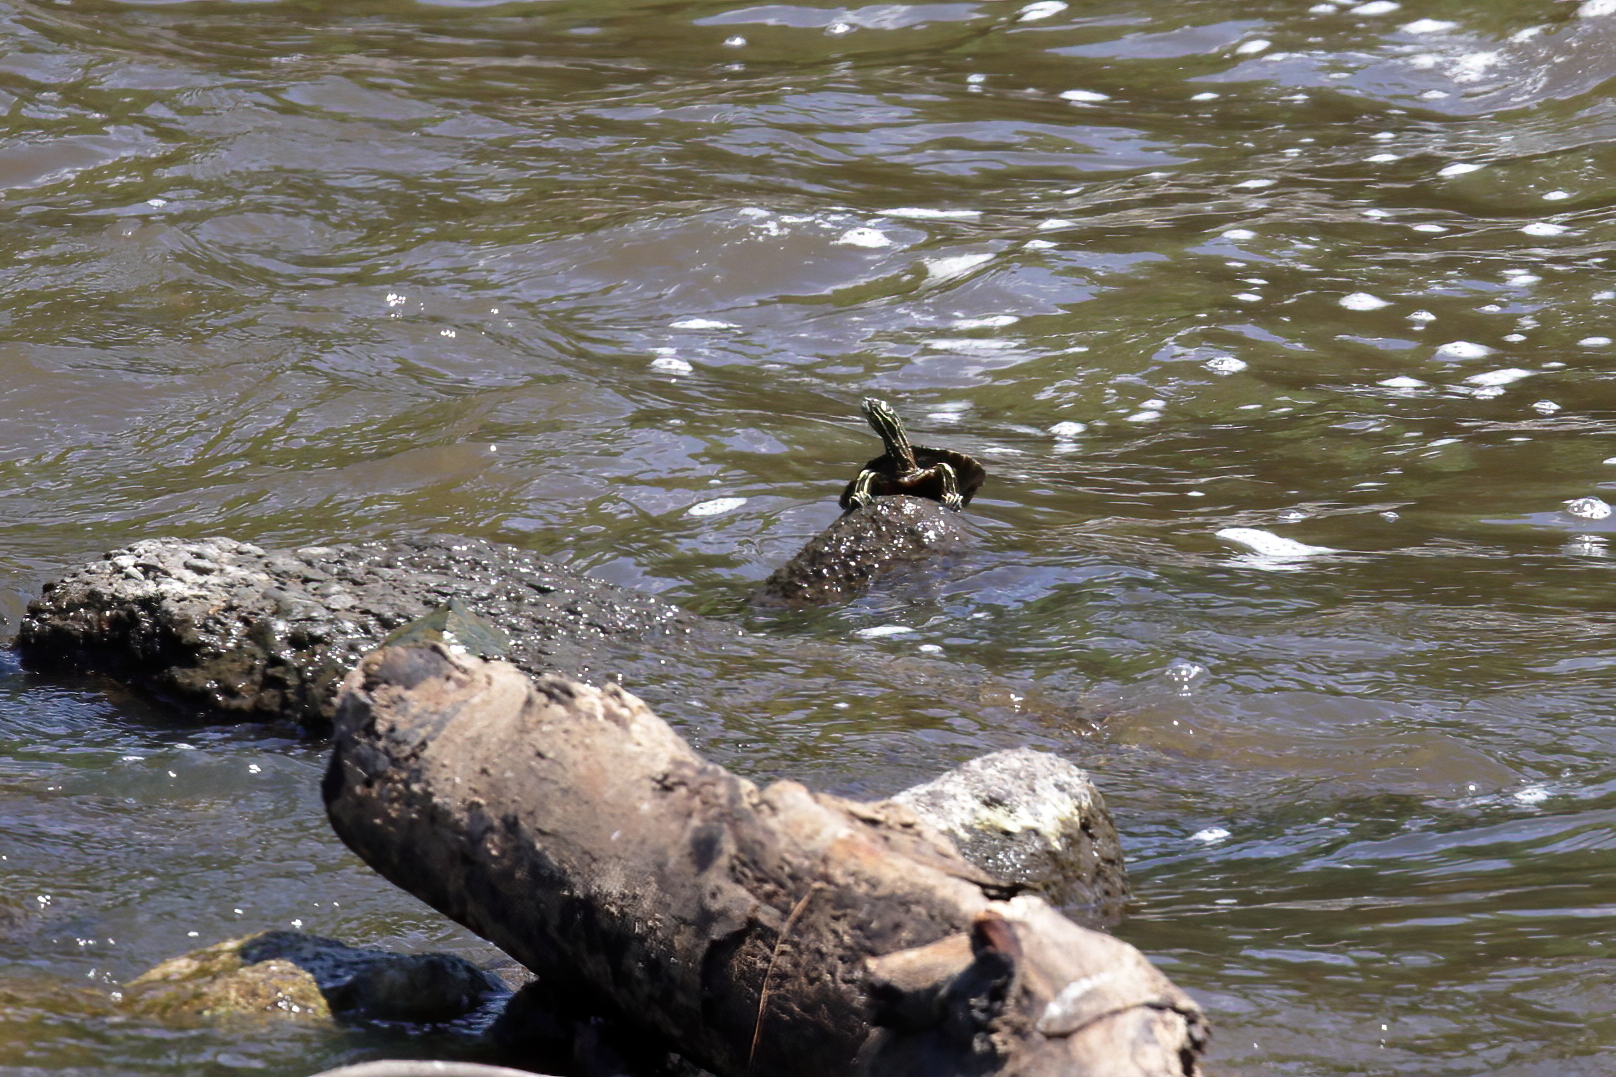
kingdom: Animalia
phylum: Chordata
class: Testudines
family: Emydidae
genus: Graptemys
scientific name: Graptemys oculifera
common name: Ringed map turtle
